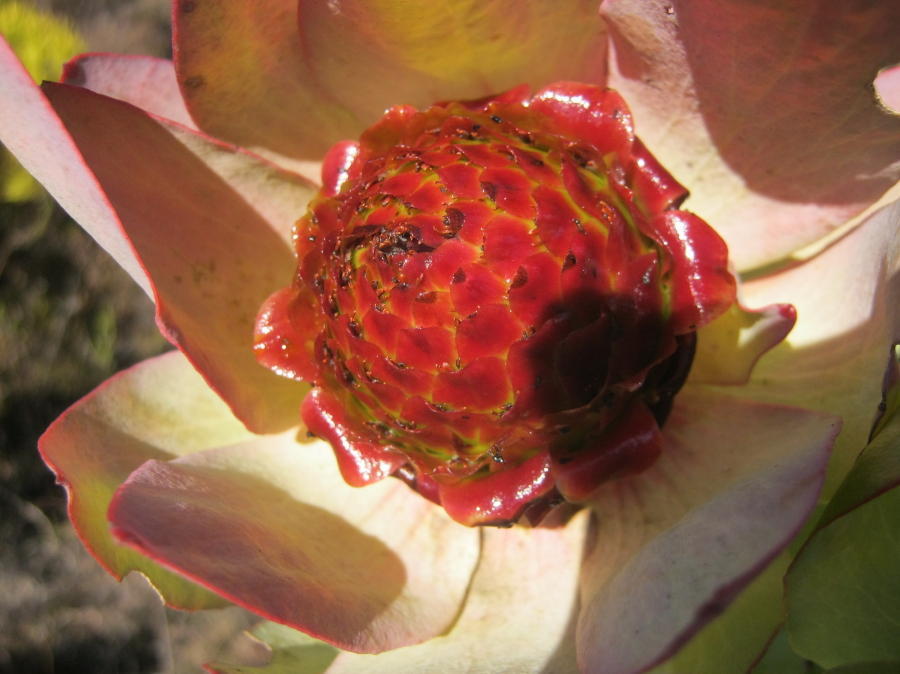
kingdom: Plantae
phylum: Tracheophyta
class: Magnoliopsida
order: Proteales
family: Proteaceae
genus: Leucadendron
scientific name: Leucadendron tinctum
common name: Spicy conebush
